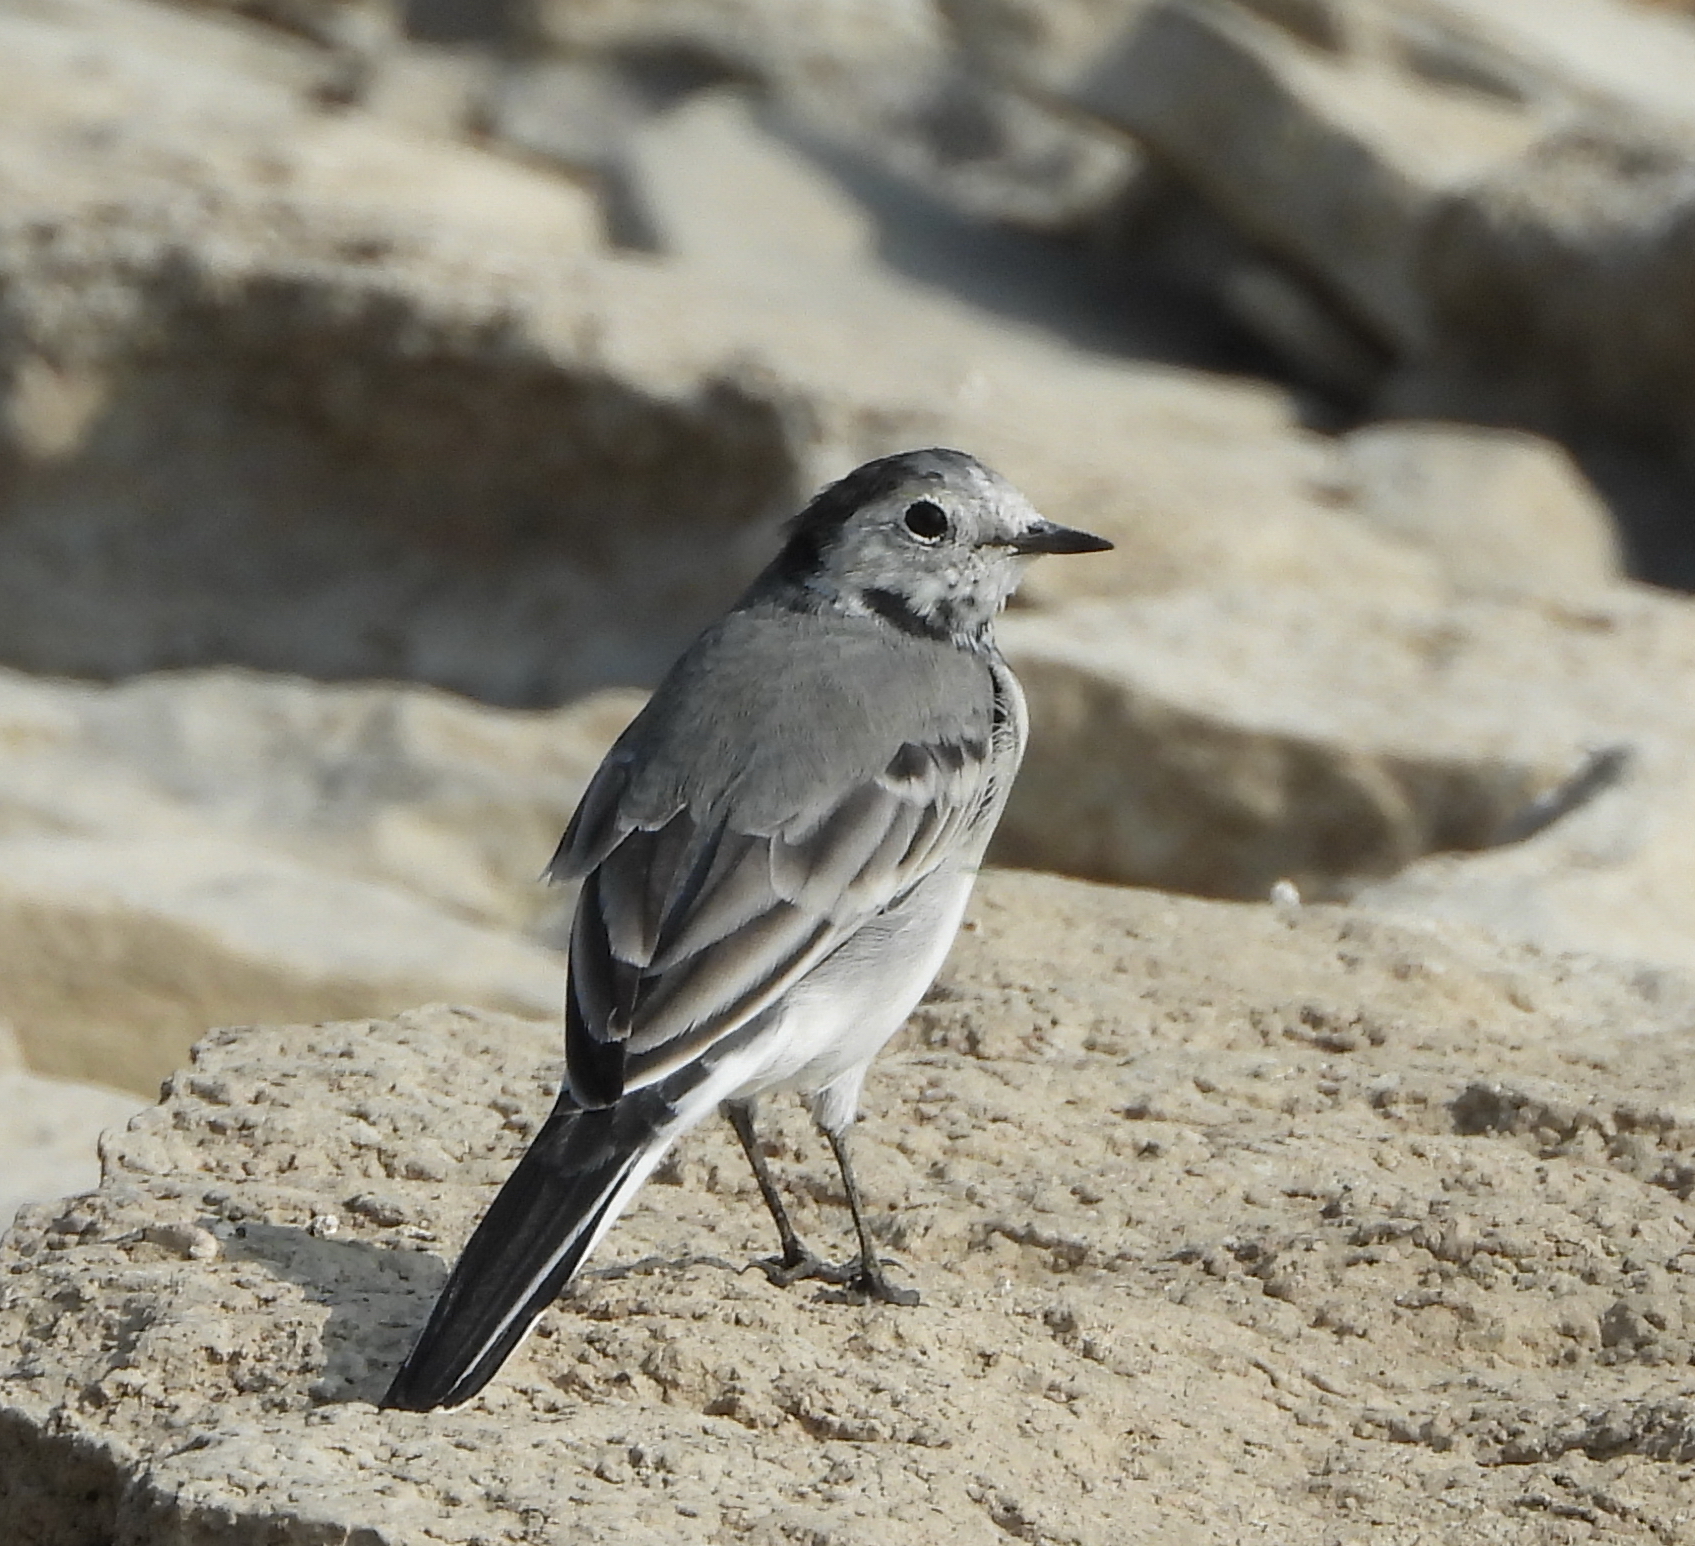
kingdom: Animalia
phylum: Chordata
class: Aves
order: Passeriformes
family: Motacillidae
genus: Motacilla
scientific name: Motacilla alba
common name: White wagtail
